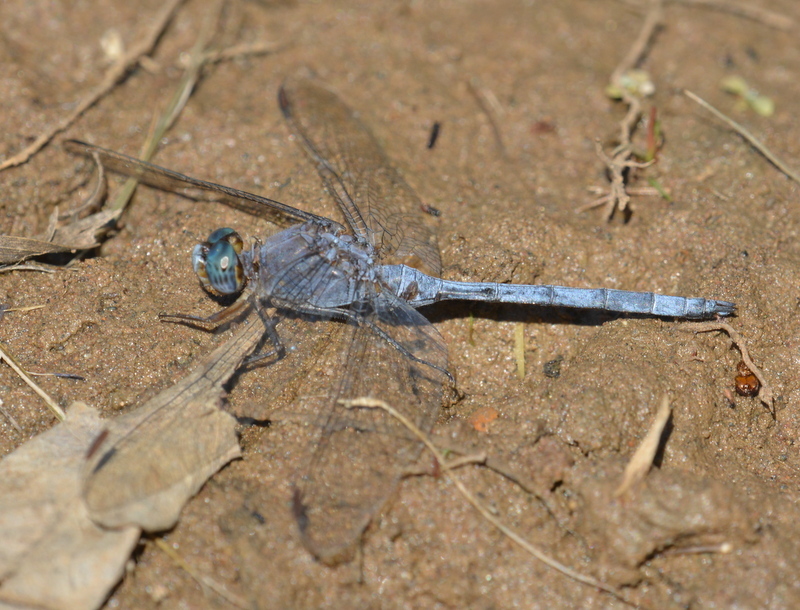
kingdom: Animalia
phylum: Arthropoda
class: Insecta
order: Odonata
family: Libellulidae
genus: Orthetrum
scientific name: Orthetrum chrysostigma
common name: Epaulet skimmer
